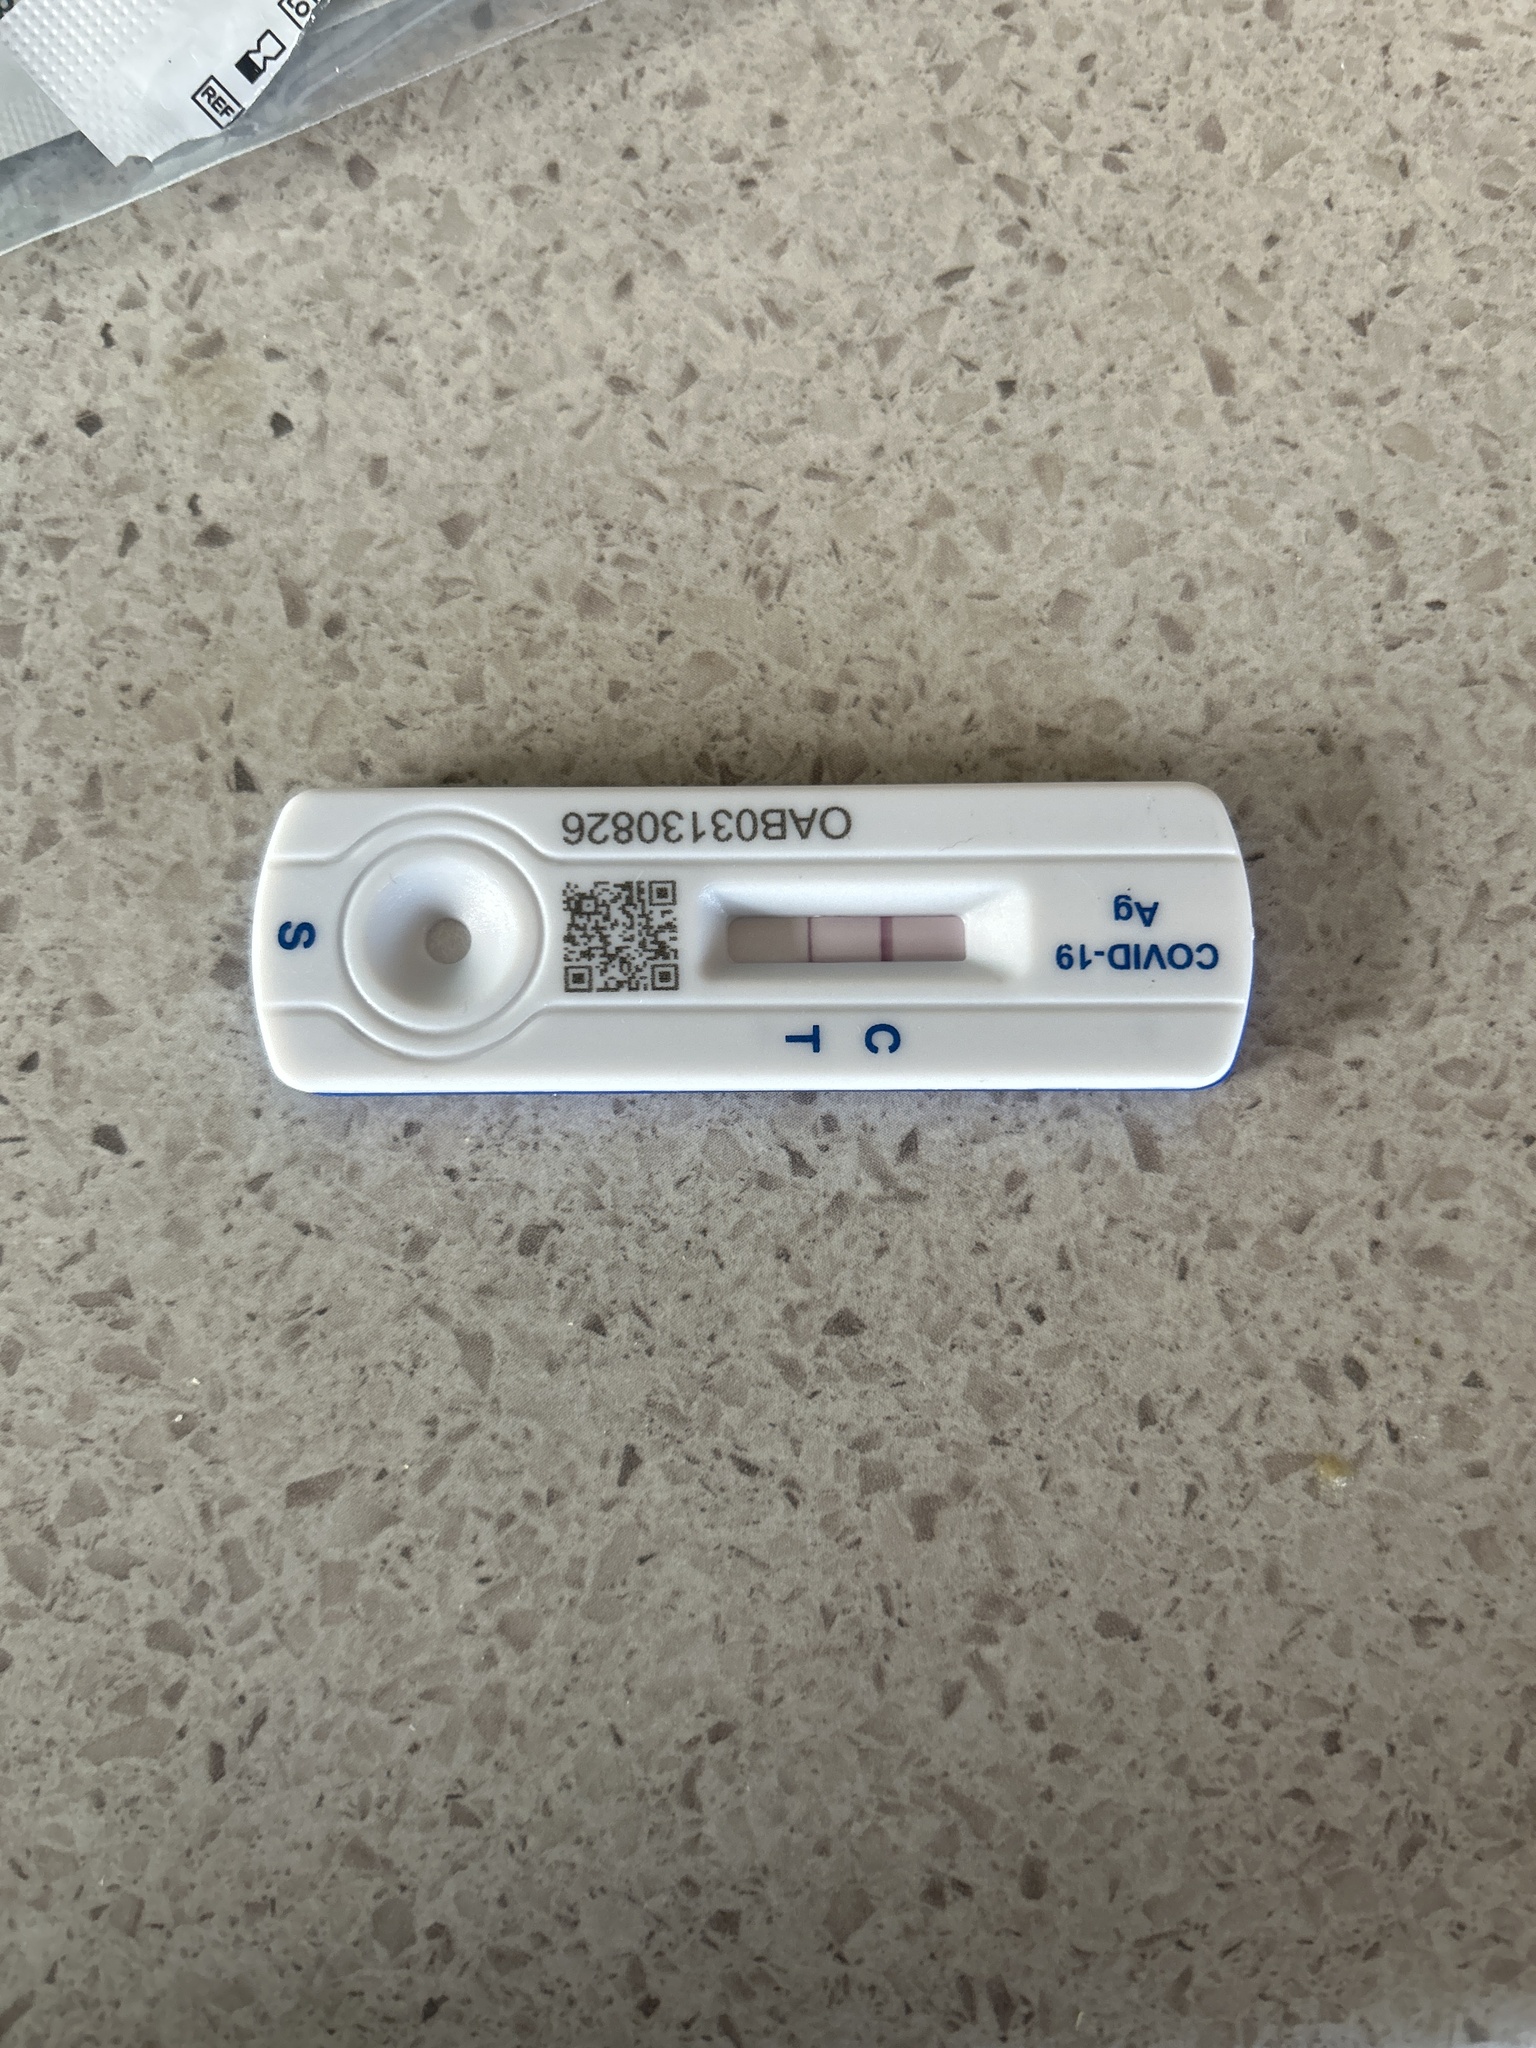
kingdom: Viruses
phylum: Pisuviricota
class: Pisoniviricetes
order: Nidovirales
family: Coronaviridae
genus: Betacoronavirus
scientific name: Betacoronavirus Severe acute respiratory syndrome-related coronavirus
